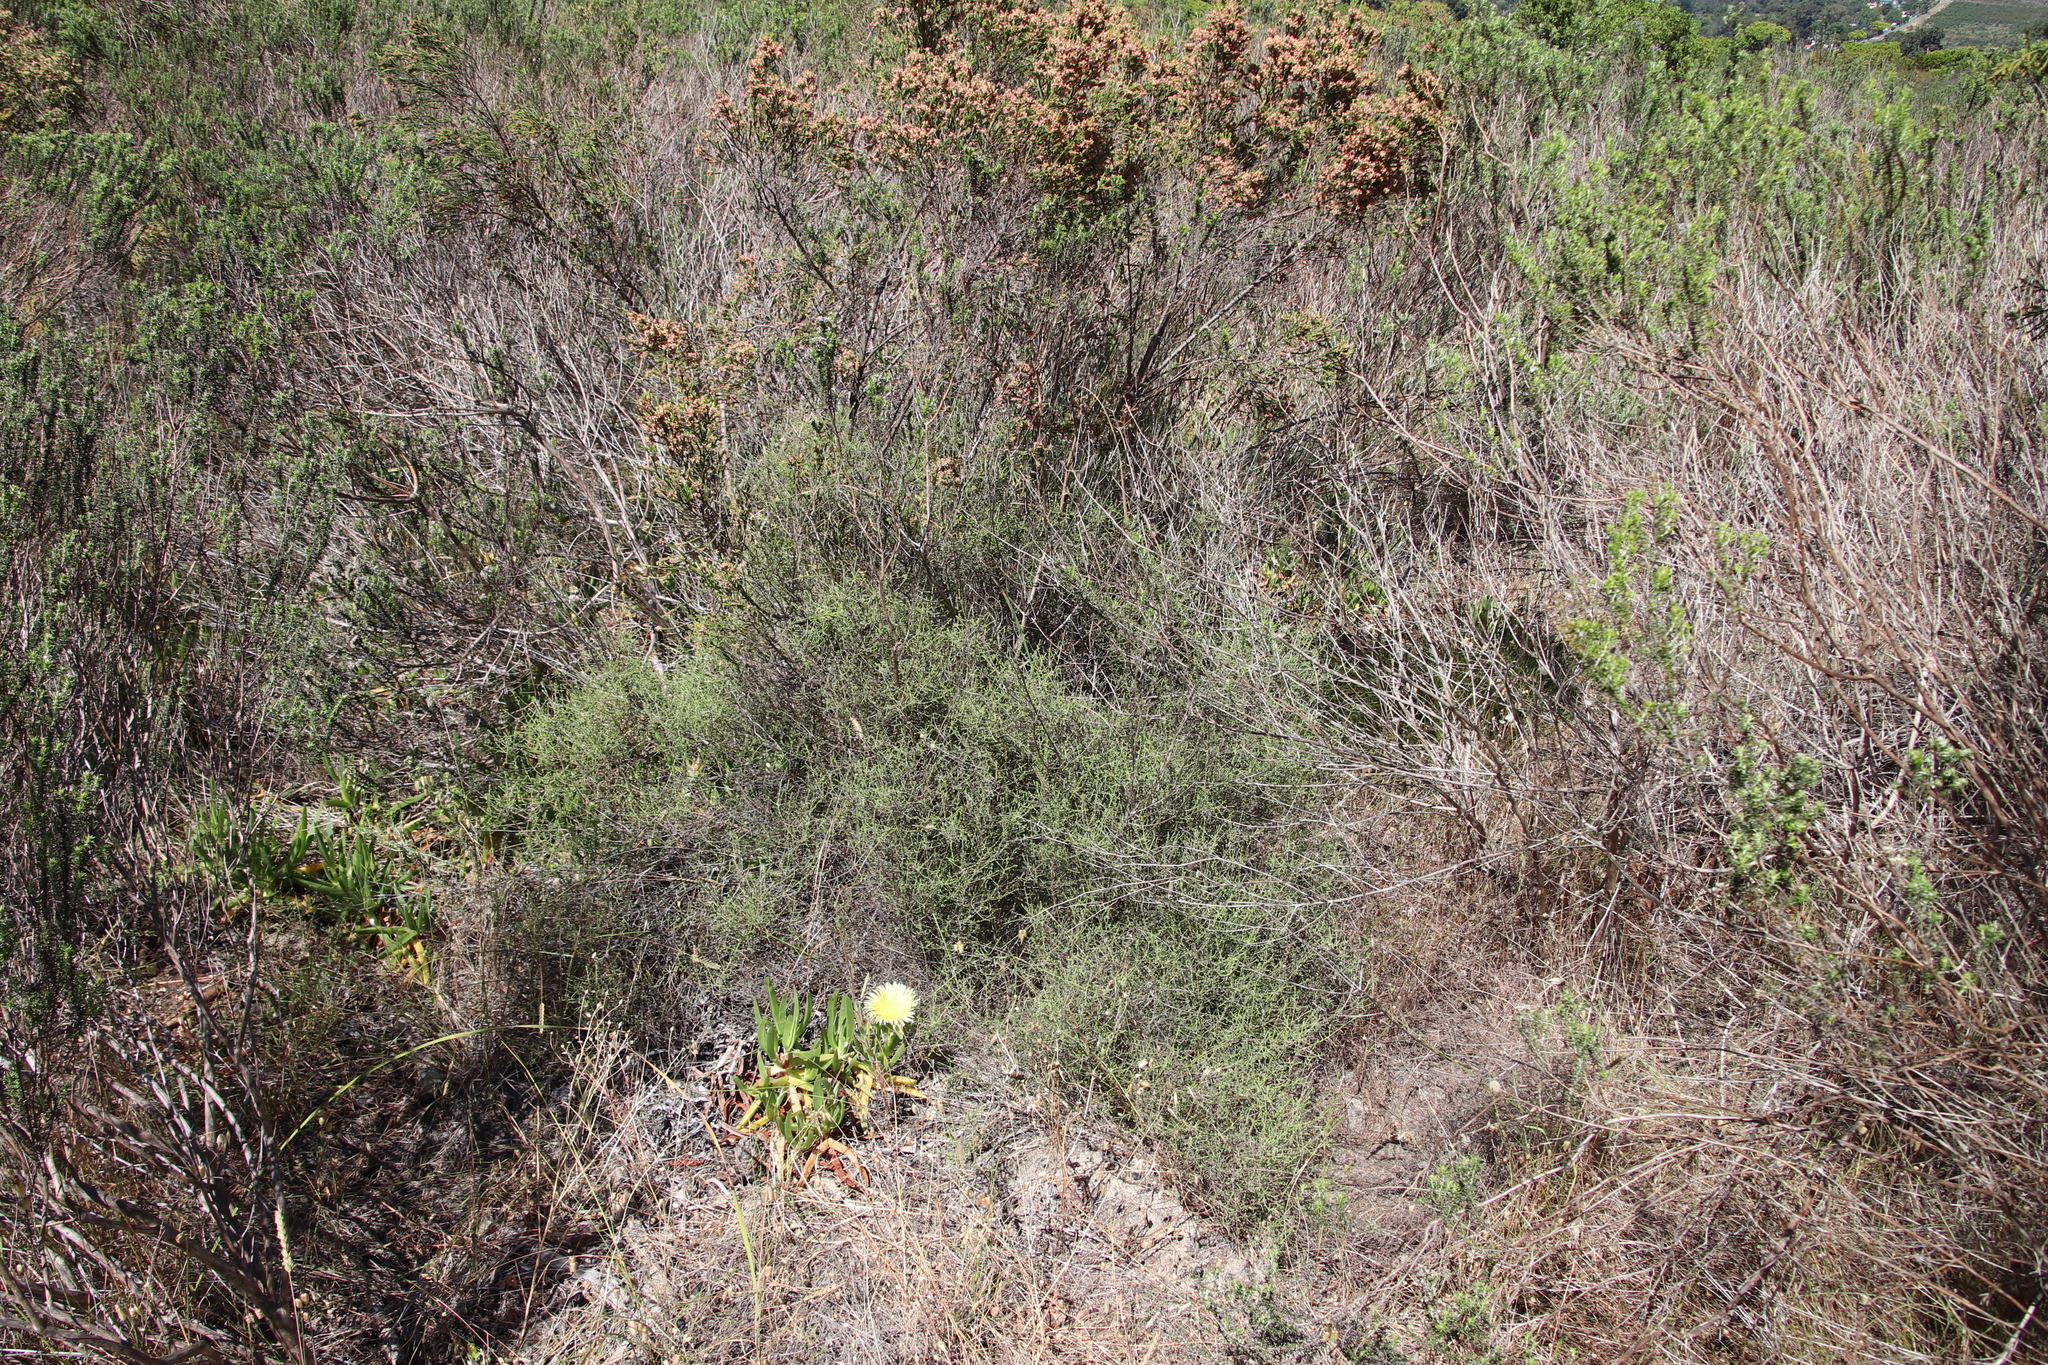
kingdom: Plantae
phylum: Tracheophyta
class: Magnoliopsida
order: Asterales
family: Asteraceae
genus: Myrovernix
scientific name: Myrovernix scaber
